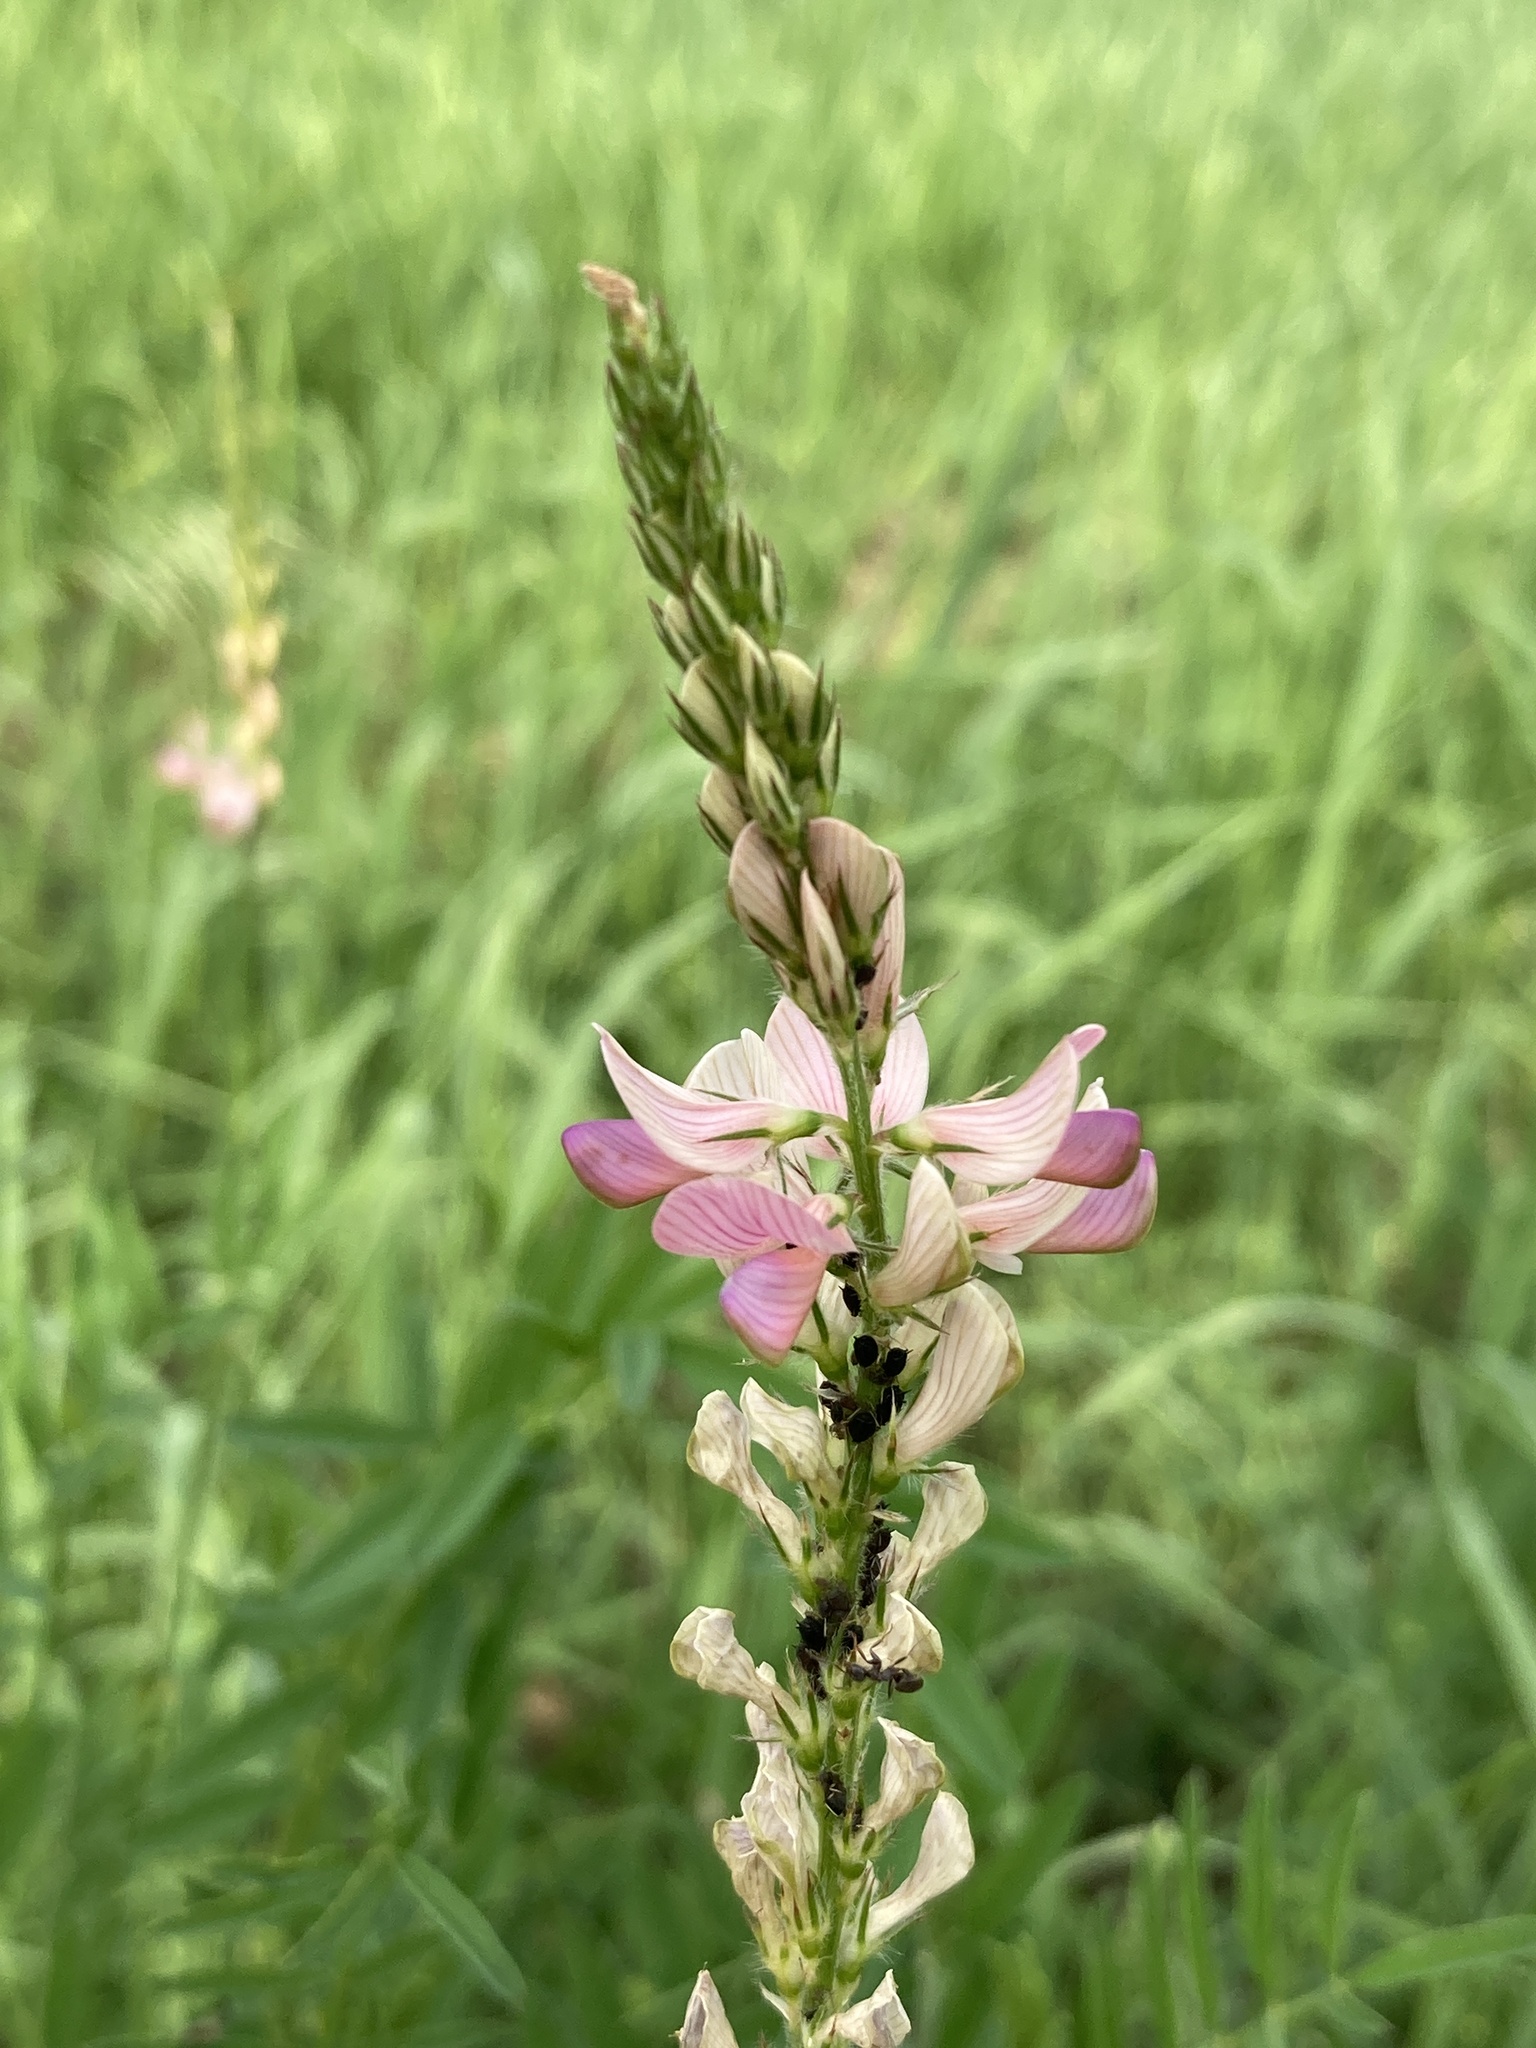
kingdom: Plantae
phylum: Tracheophyta
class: Magnoliopsida
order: Fabales
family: Fabaceae
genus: Onobrychis
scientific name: Onobrychis viciifolia
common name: Sainfoin
